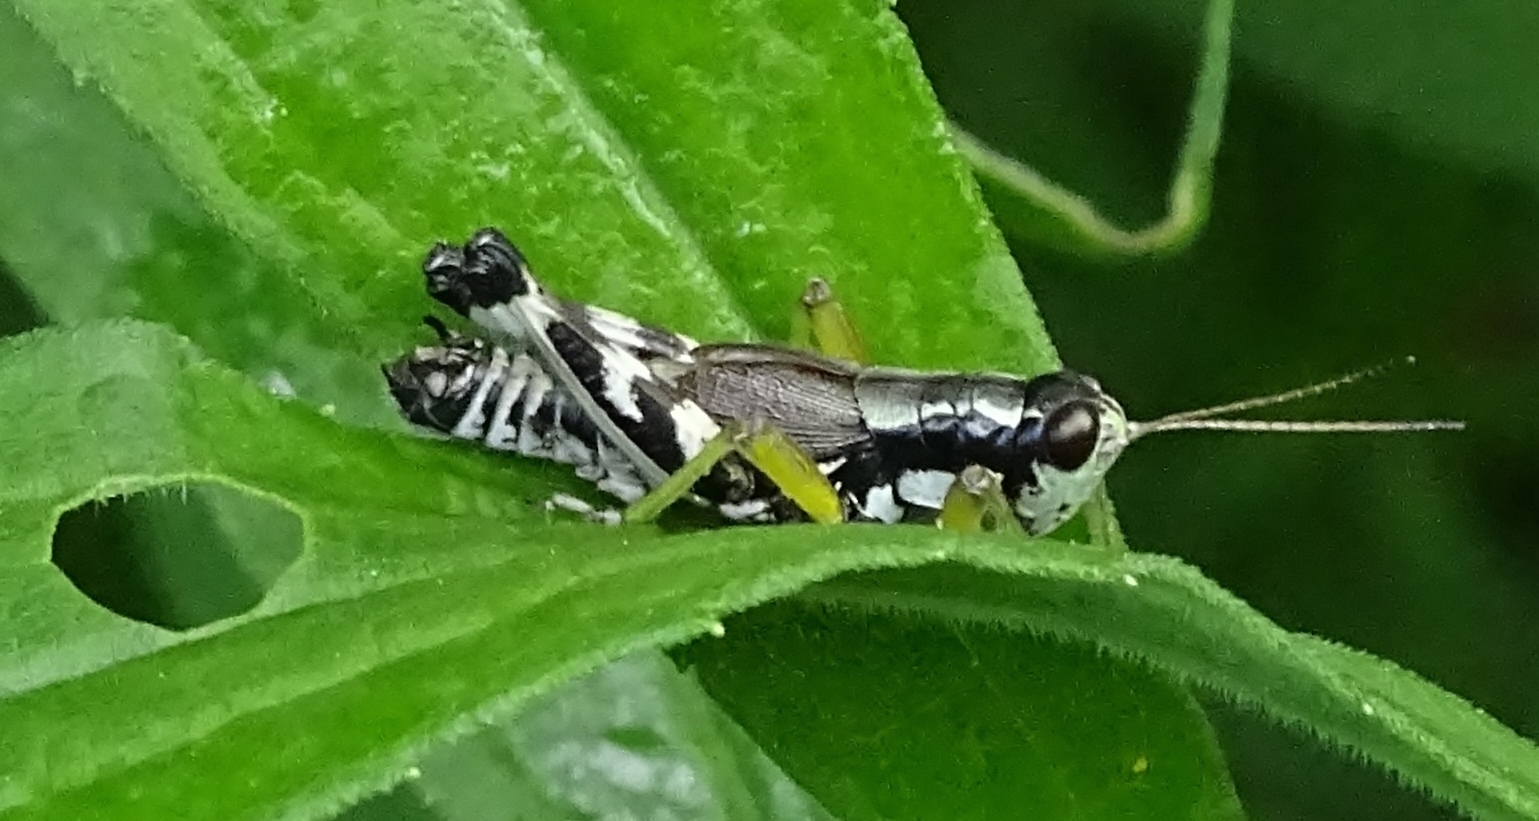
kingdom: Animalia
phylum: Arthropoda
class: Insecta
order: Orthoptera
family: Acrididae
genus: Melanoplus
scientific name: Melanoplus viridipes
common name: Green-legged locust
